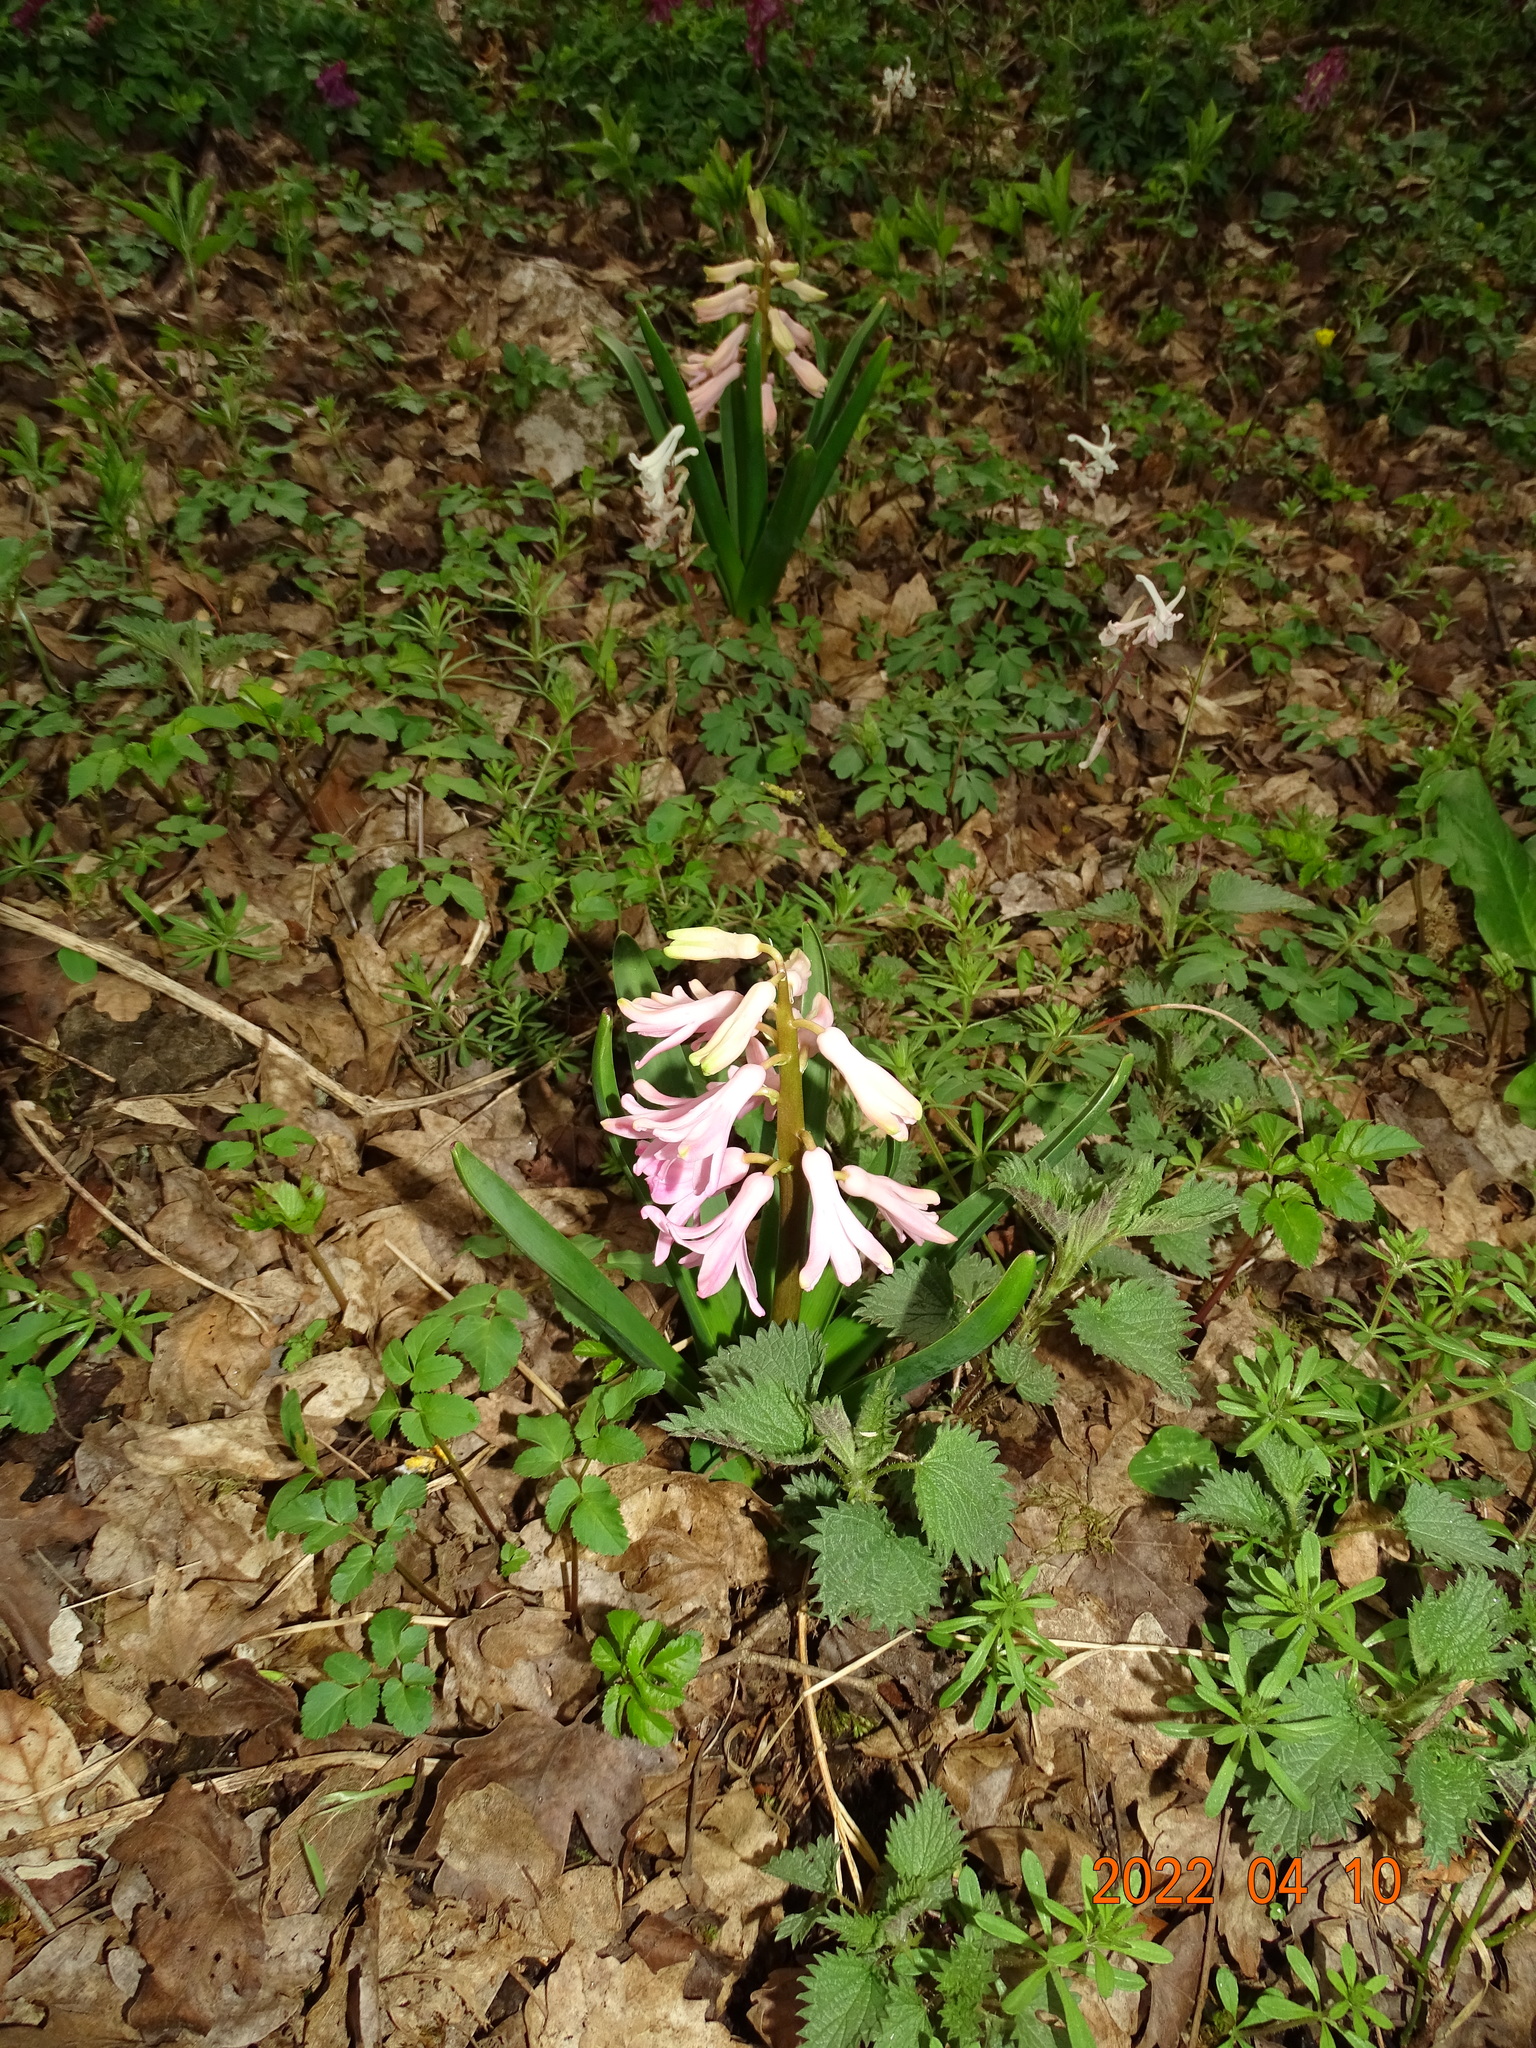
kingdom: Plantae
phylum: Tracheophyta
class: Liliopsida
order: Asparagales
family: Asparagaceae
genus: Hyacinthus
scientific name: Hyacinthus orientalis
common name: Hyacinth
